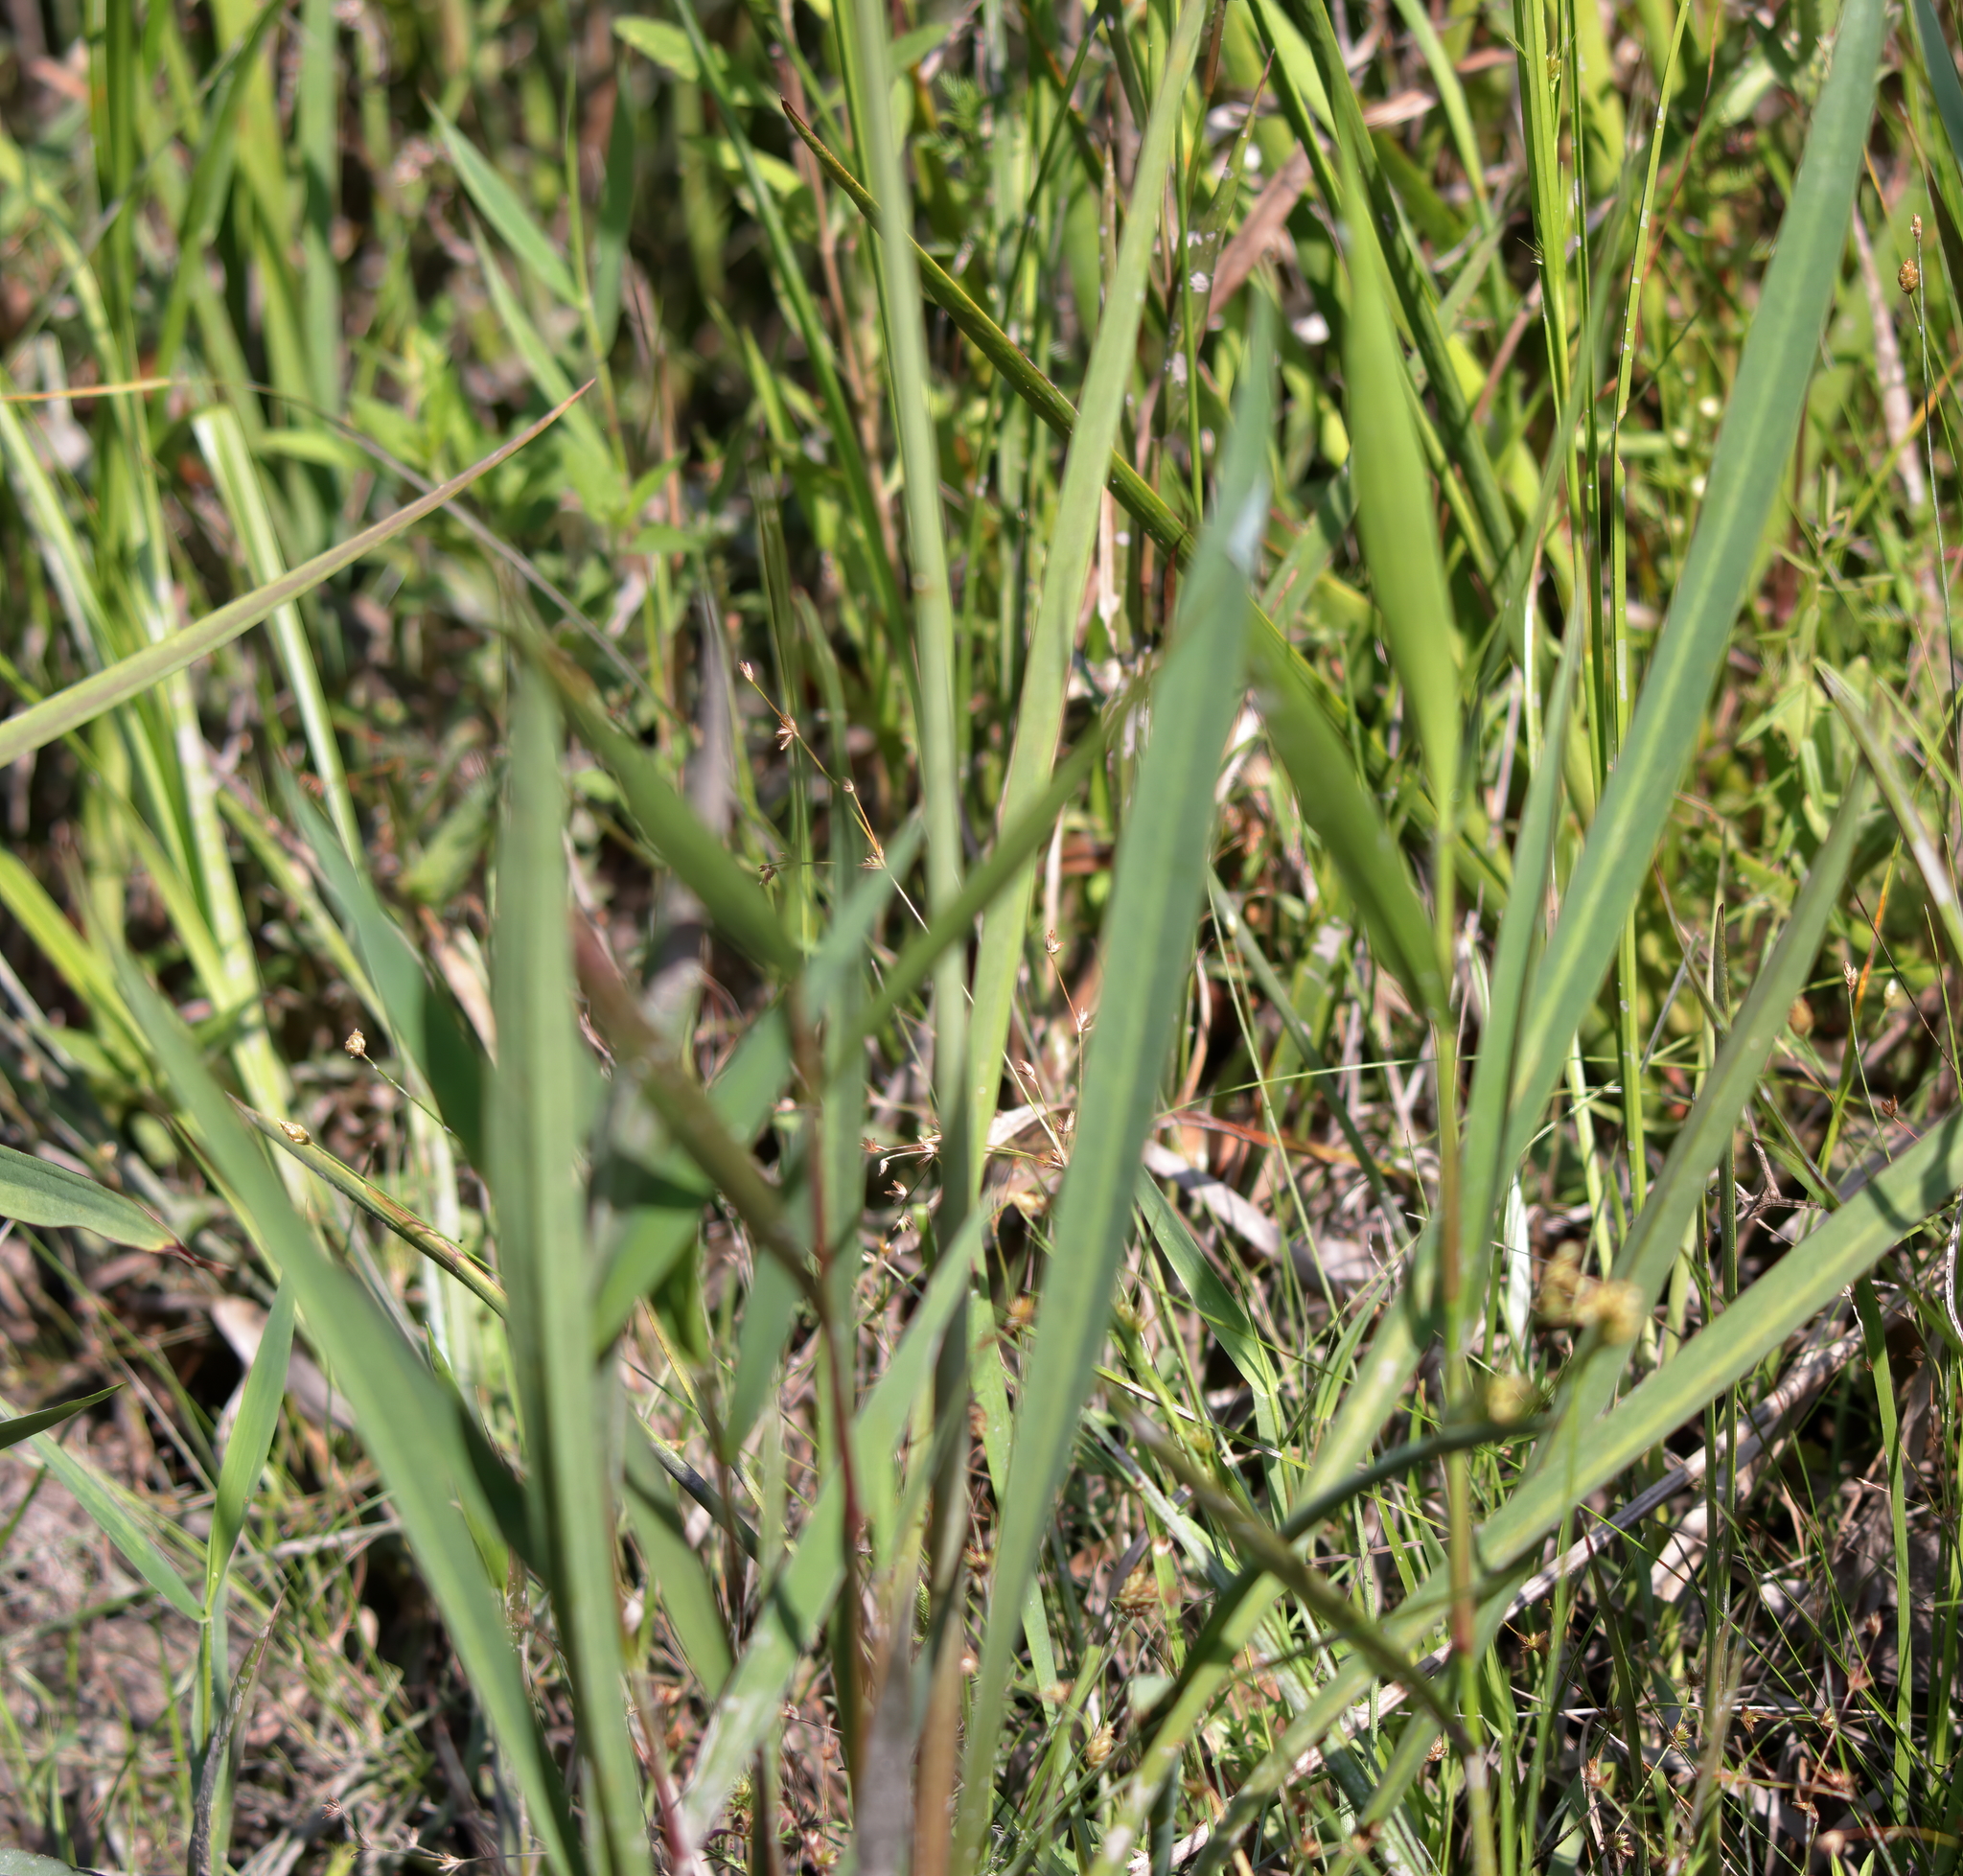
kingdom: Plantae
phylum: Tracheophyta
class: Liliopsida
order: Alismatales
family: Alismataceae
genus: Sagittaria
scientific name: Sagittaria lancifolia
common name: Lance-leaf arrowhead
